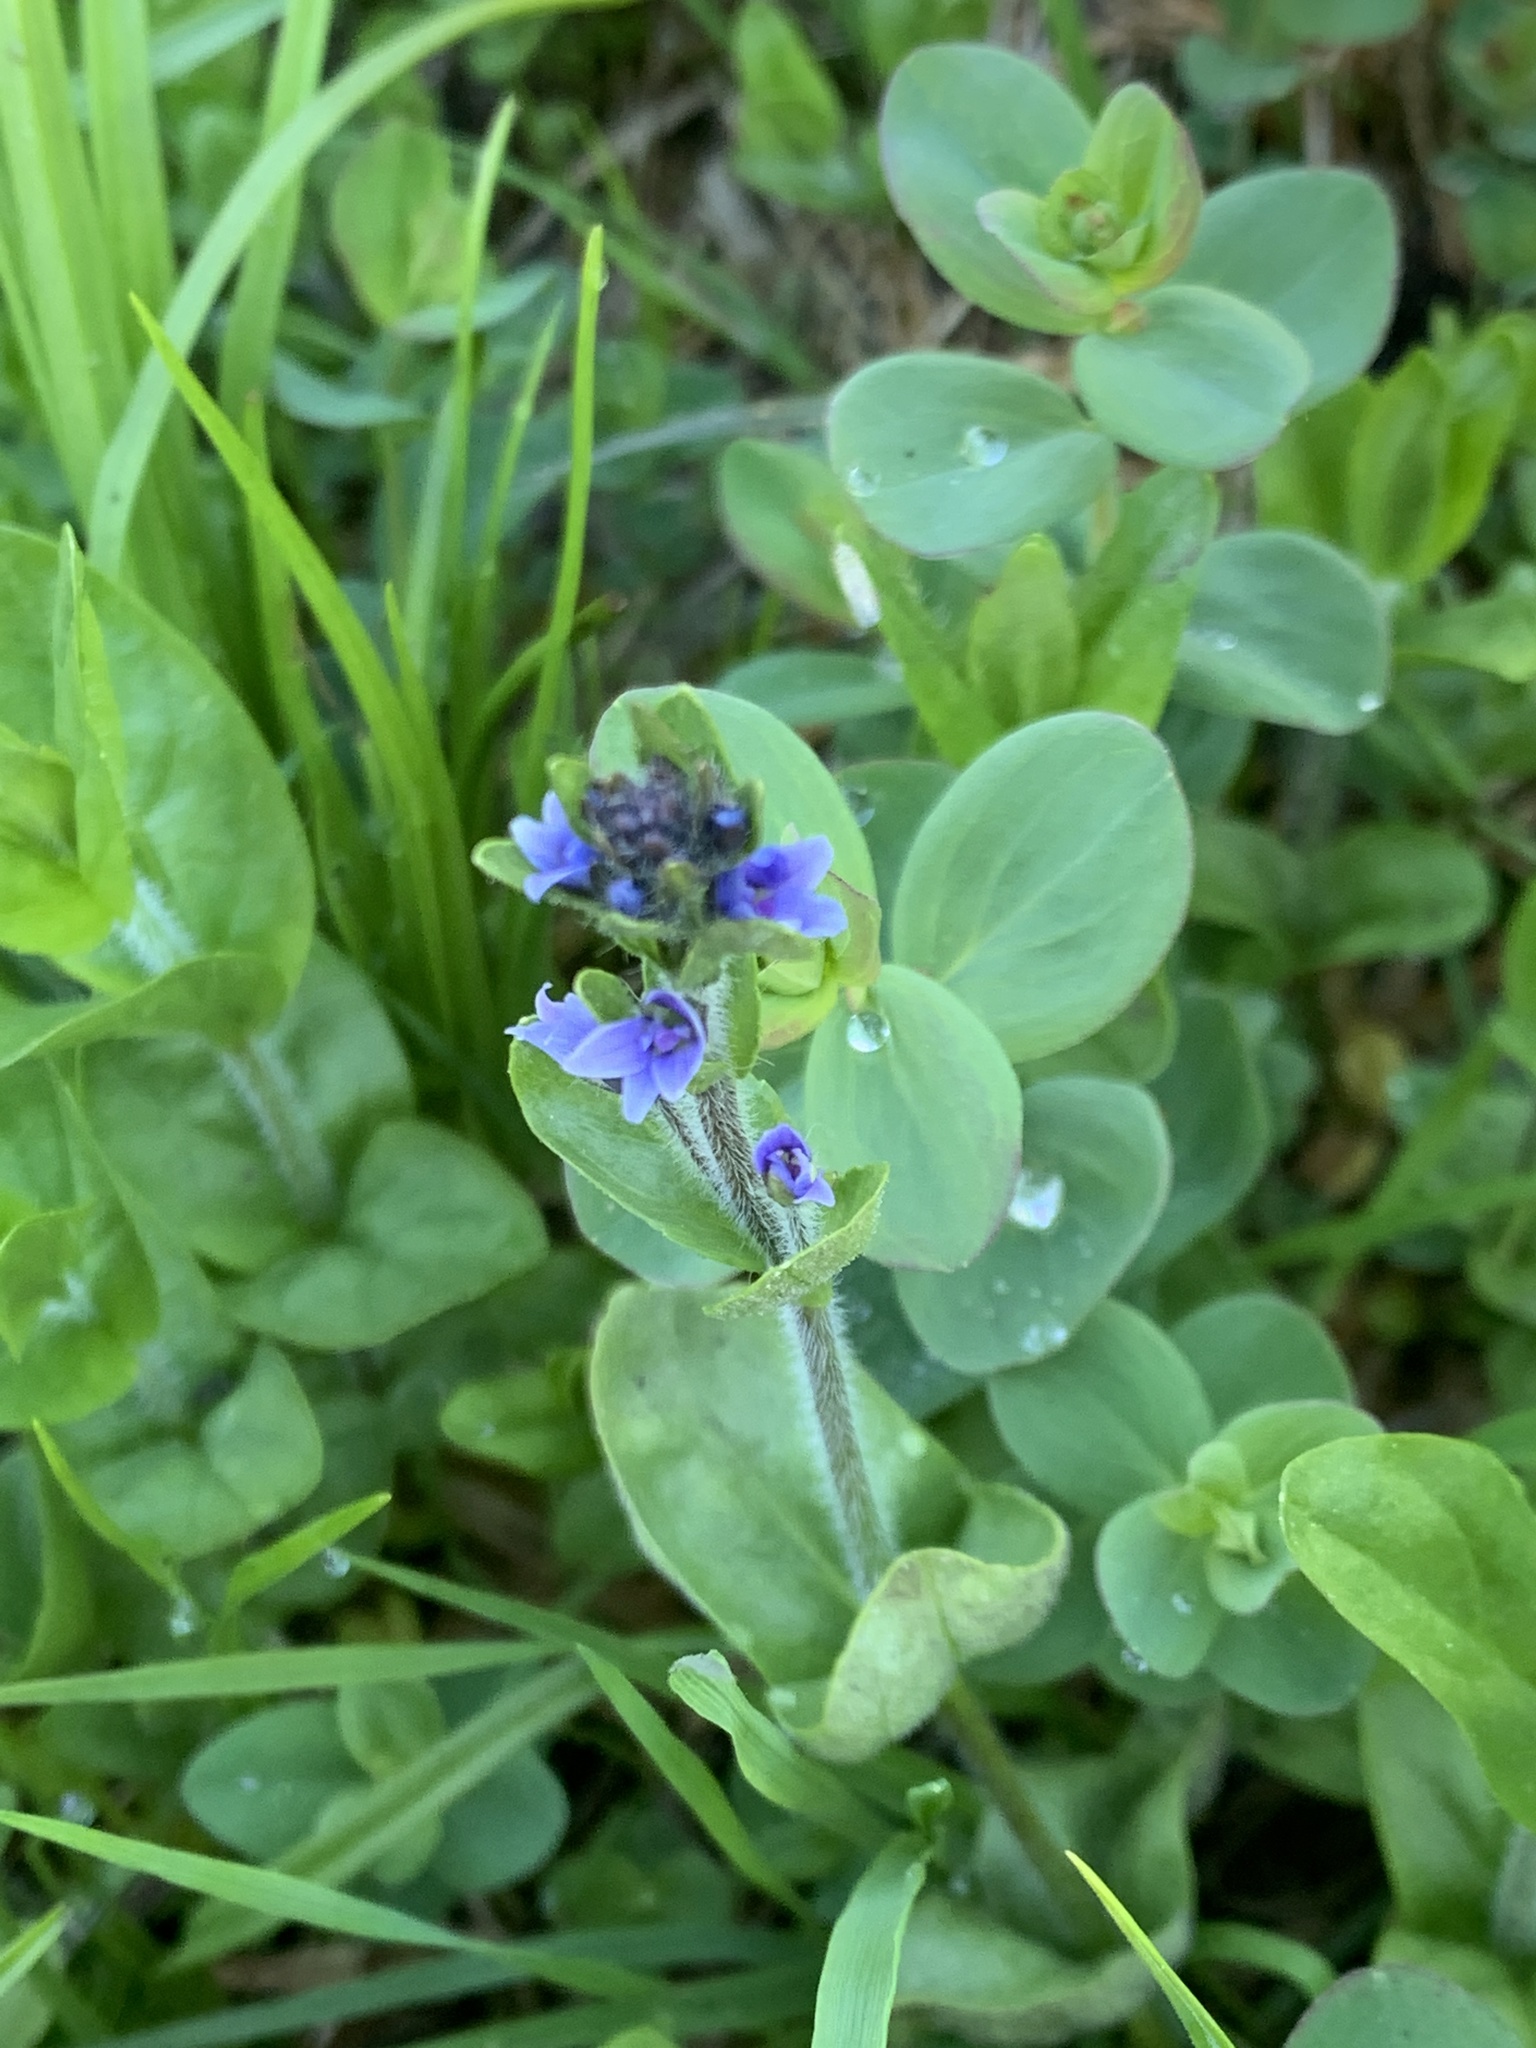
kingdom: Plantae
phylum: Tracheophyta
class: Magnoliopsida
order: Lamiales
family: Plantaginaceae
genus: Veronica
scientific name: Veronica wormskjoldii
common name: American alpine speedwell
